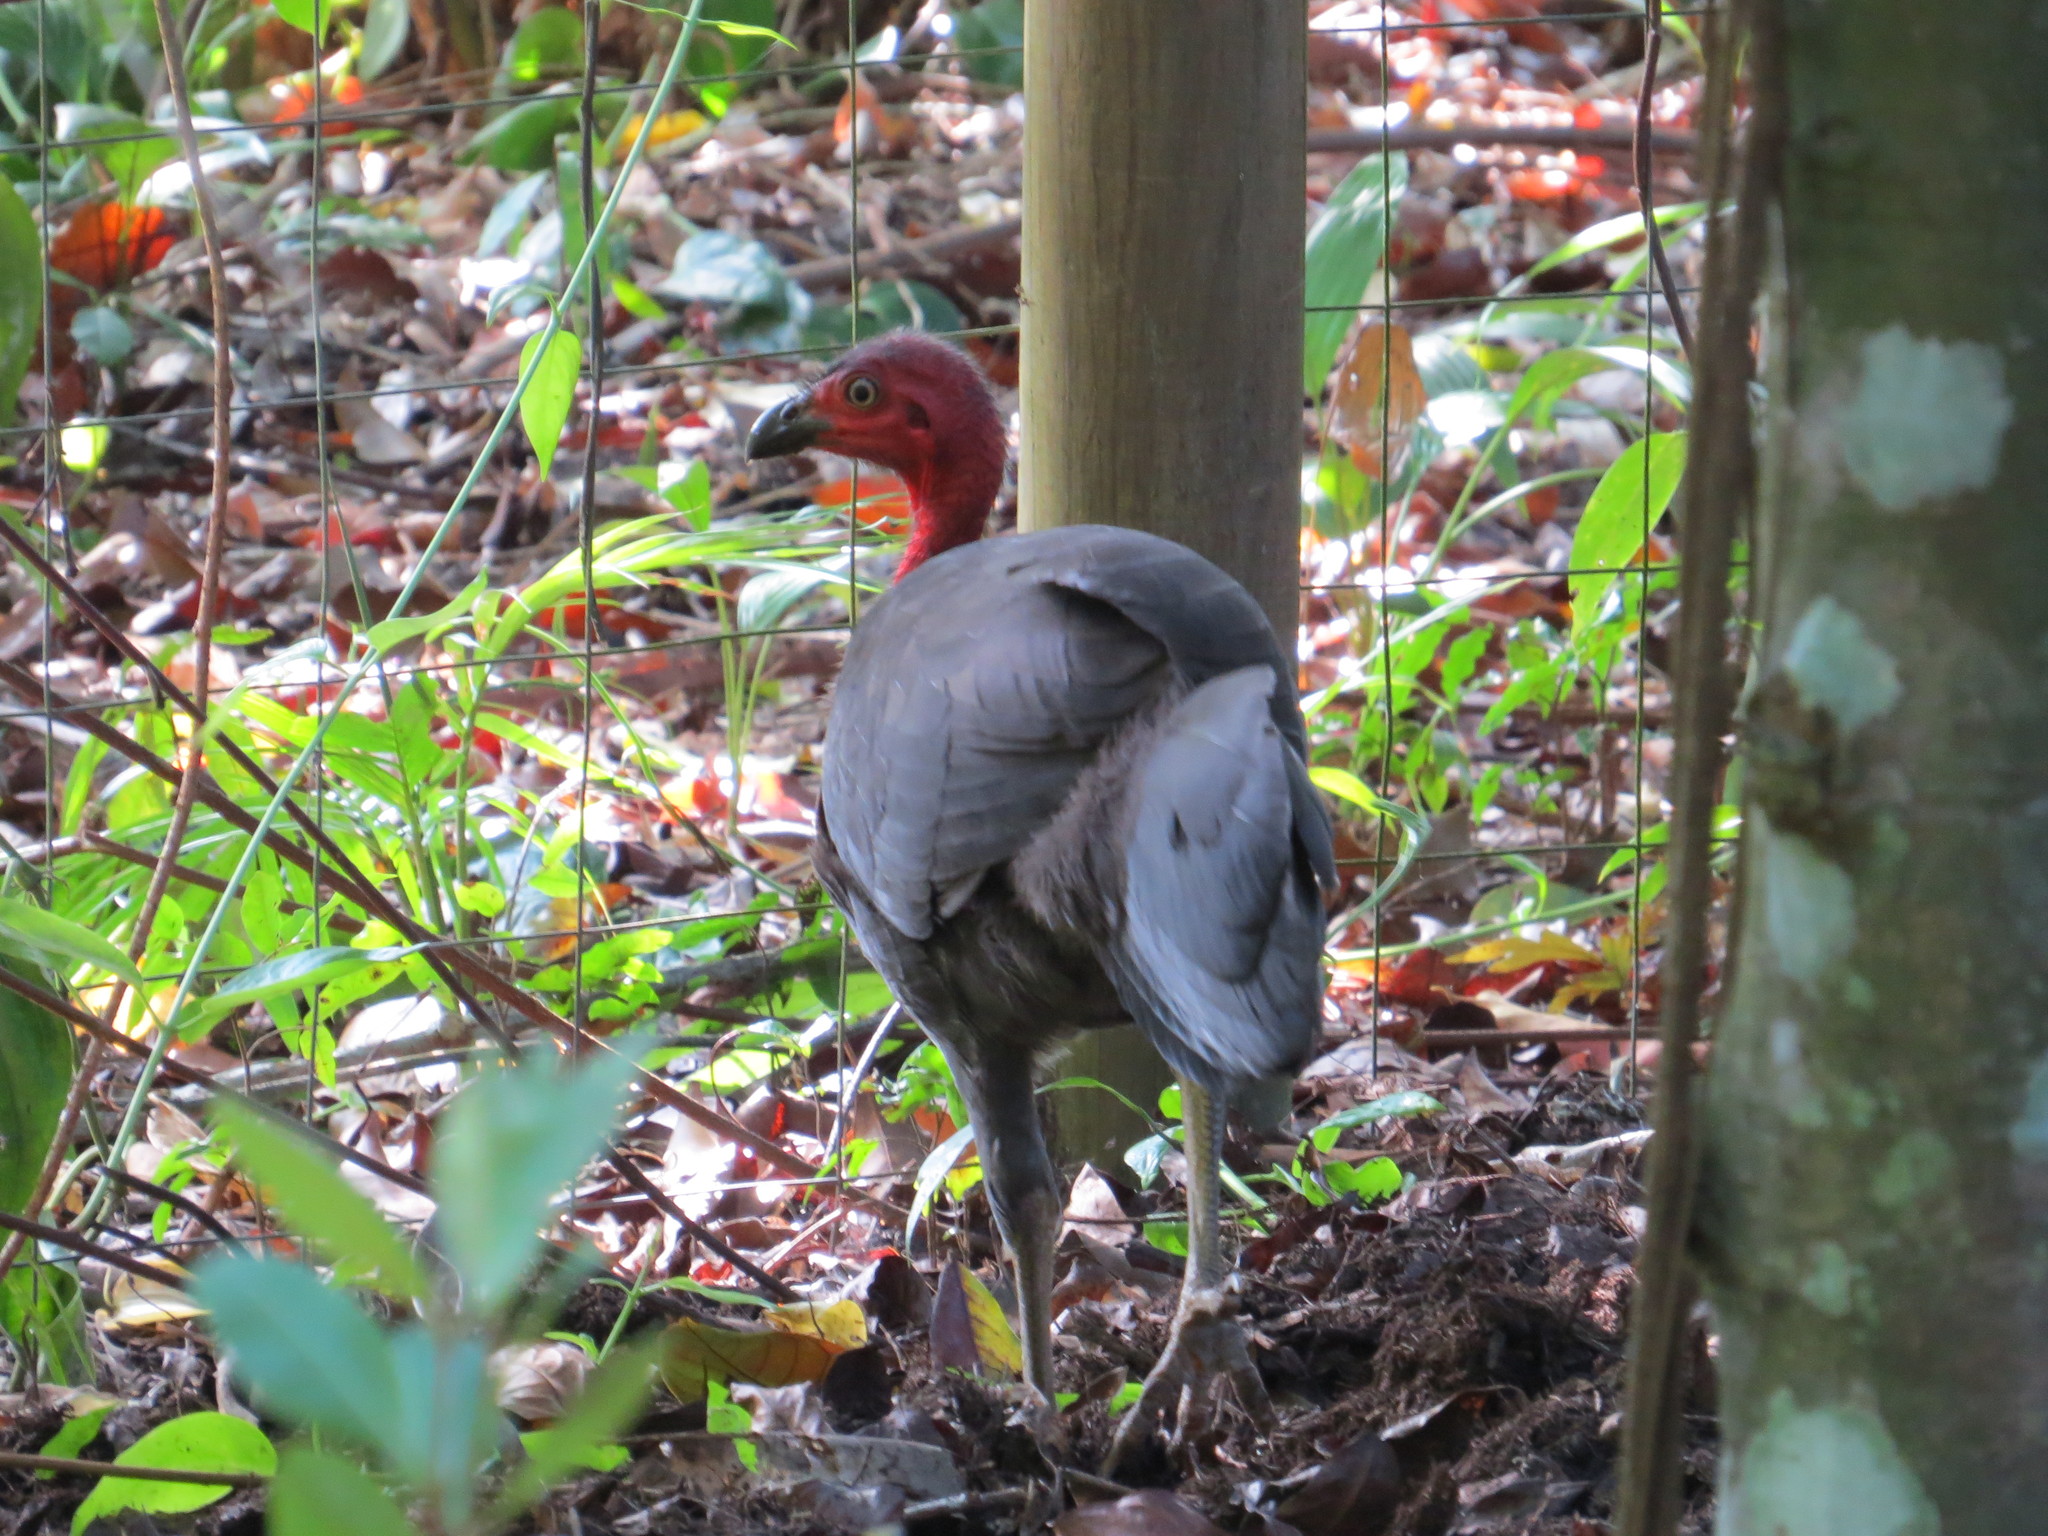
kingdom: Animalia
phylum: Chordata
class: Aves
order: Galliformes
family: Megapodiidae
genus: Alectura
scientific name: Alectura lathami
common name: Australian brushturkey
